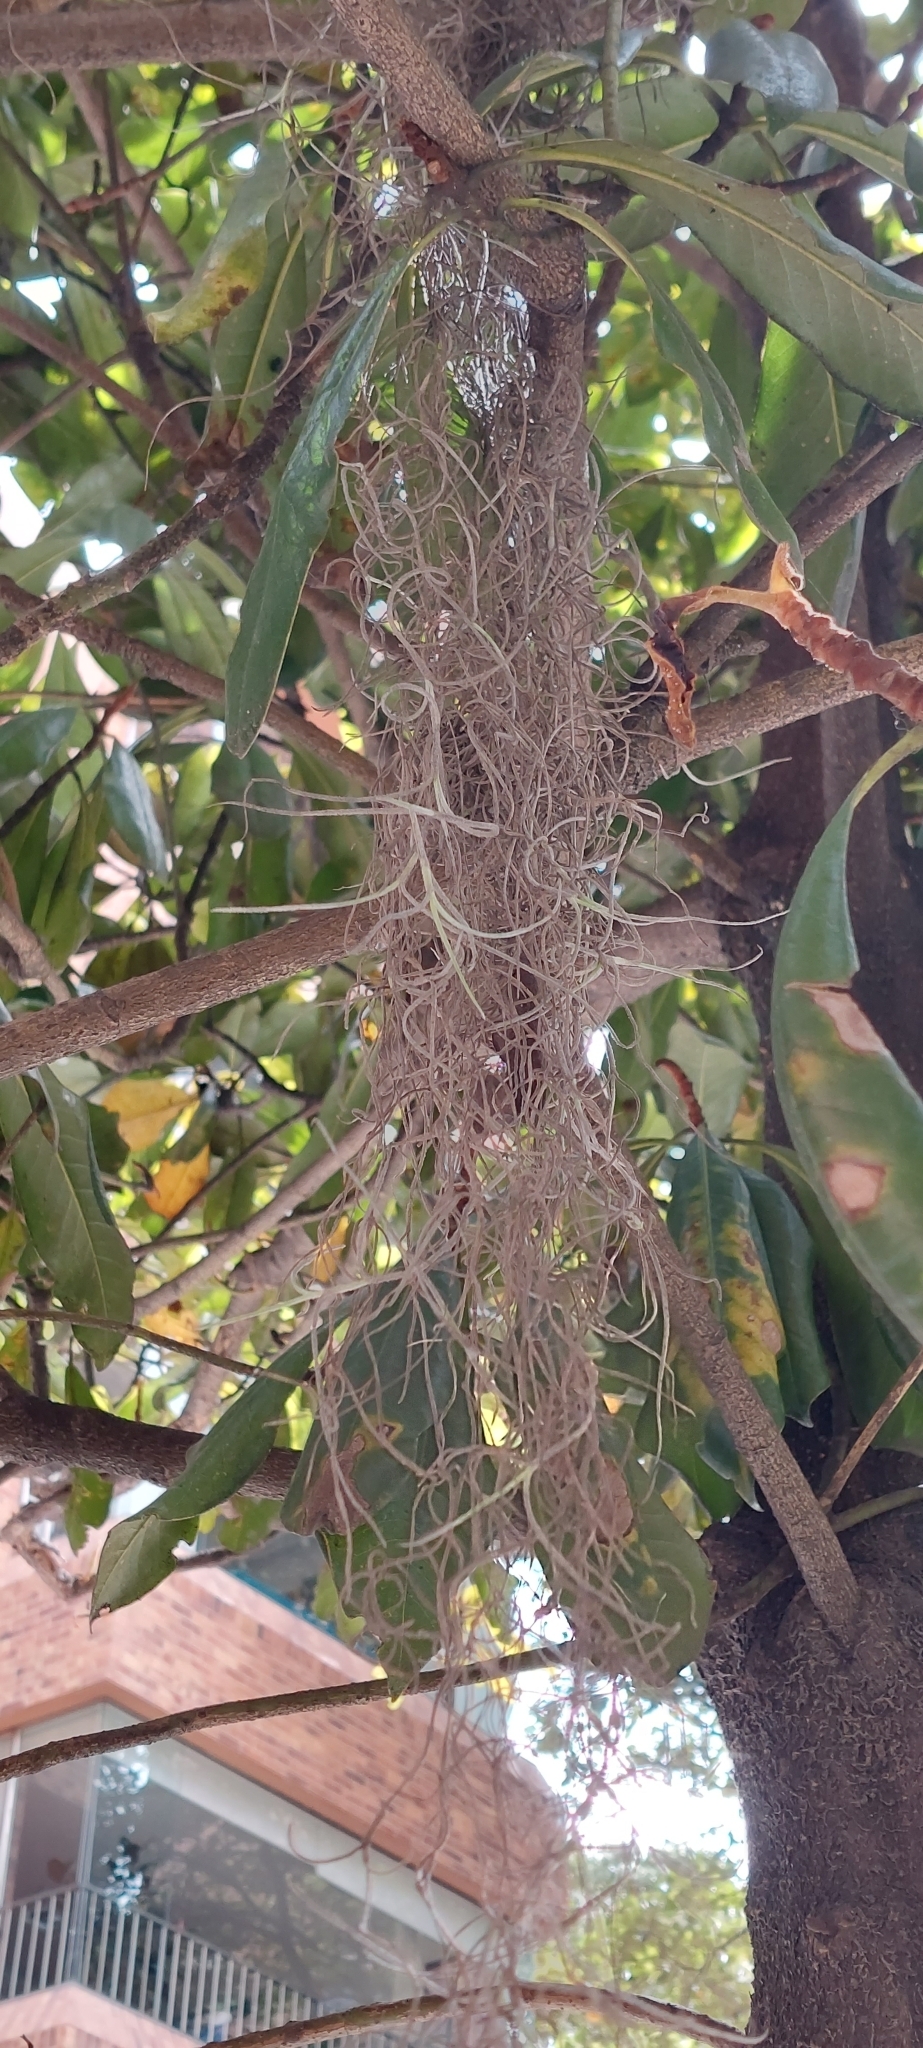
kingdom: Plantae
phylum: Tracheophyta
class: Liliopsida
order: Poales
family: Bromeliaceae
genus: Tillandsia
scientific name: Tillandsia usneoides
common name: Spanish moss
